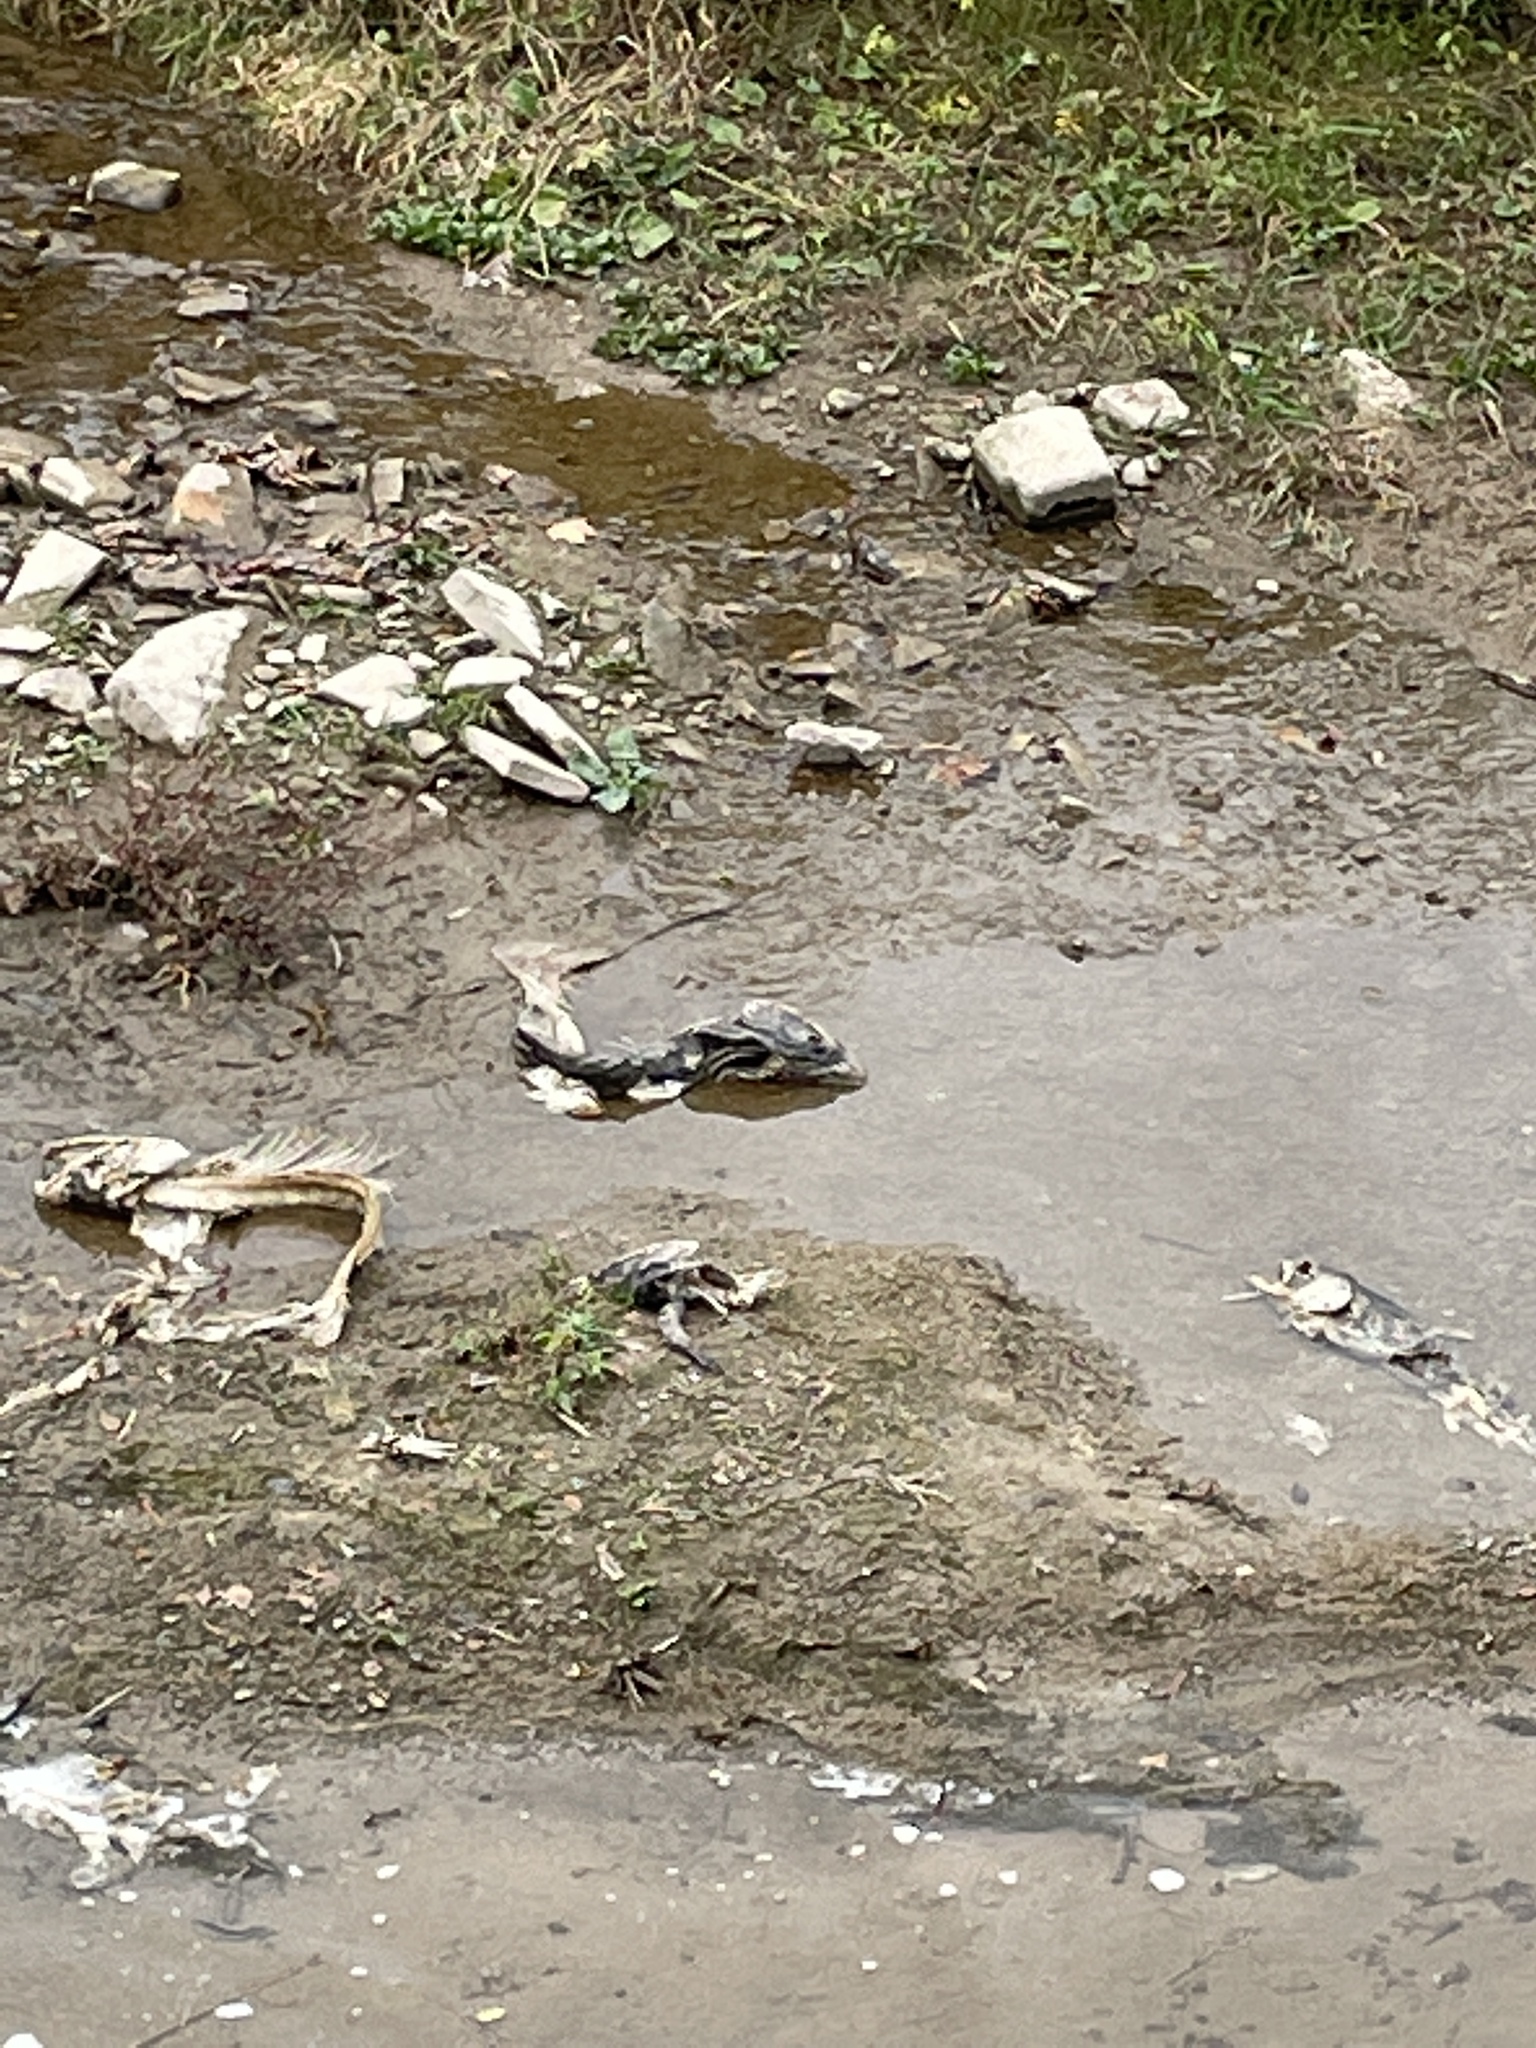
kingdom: Animalia
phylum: Chordata
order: Salmoniformes
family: Salmonidae
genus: Oncorhynchus
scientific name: Oncorhynchus tshawytscha
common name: Chinook salmon
